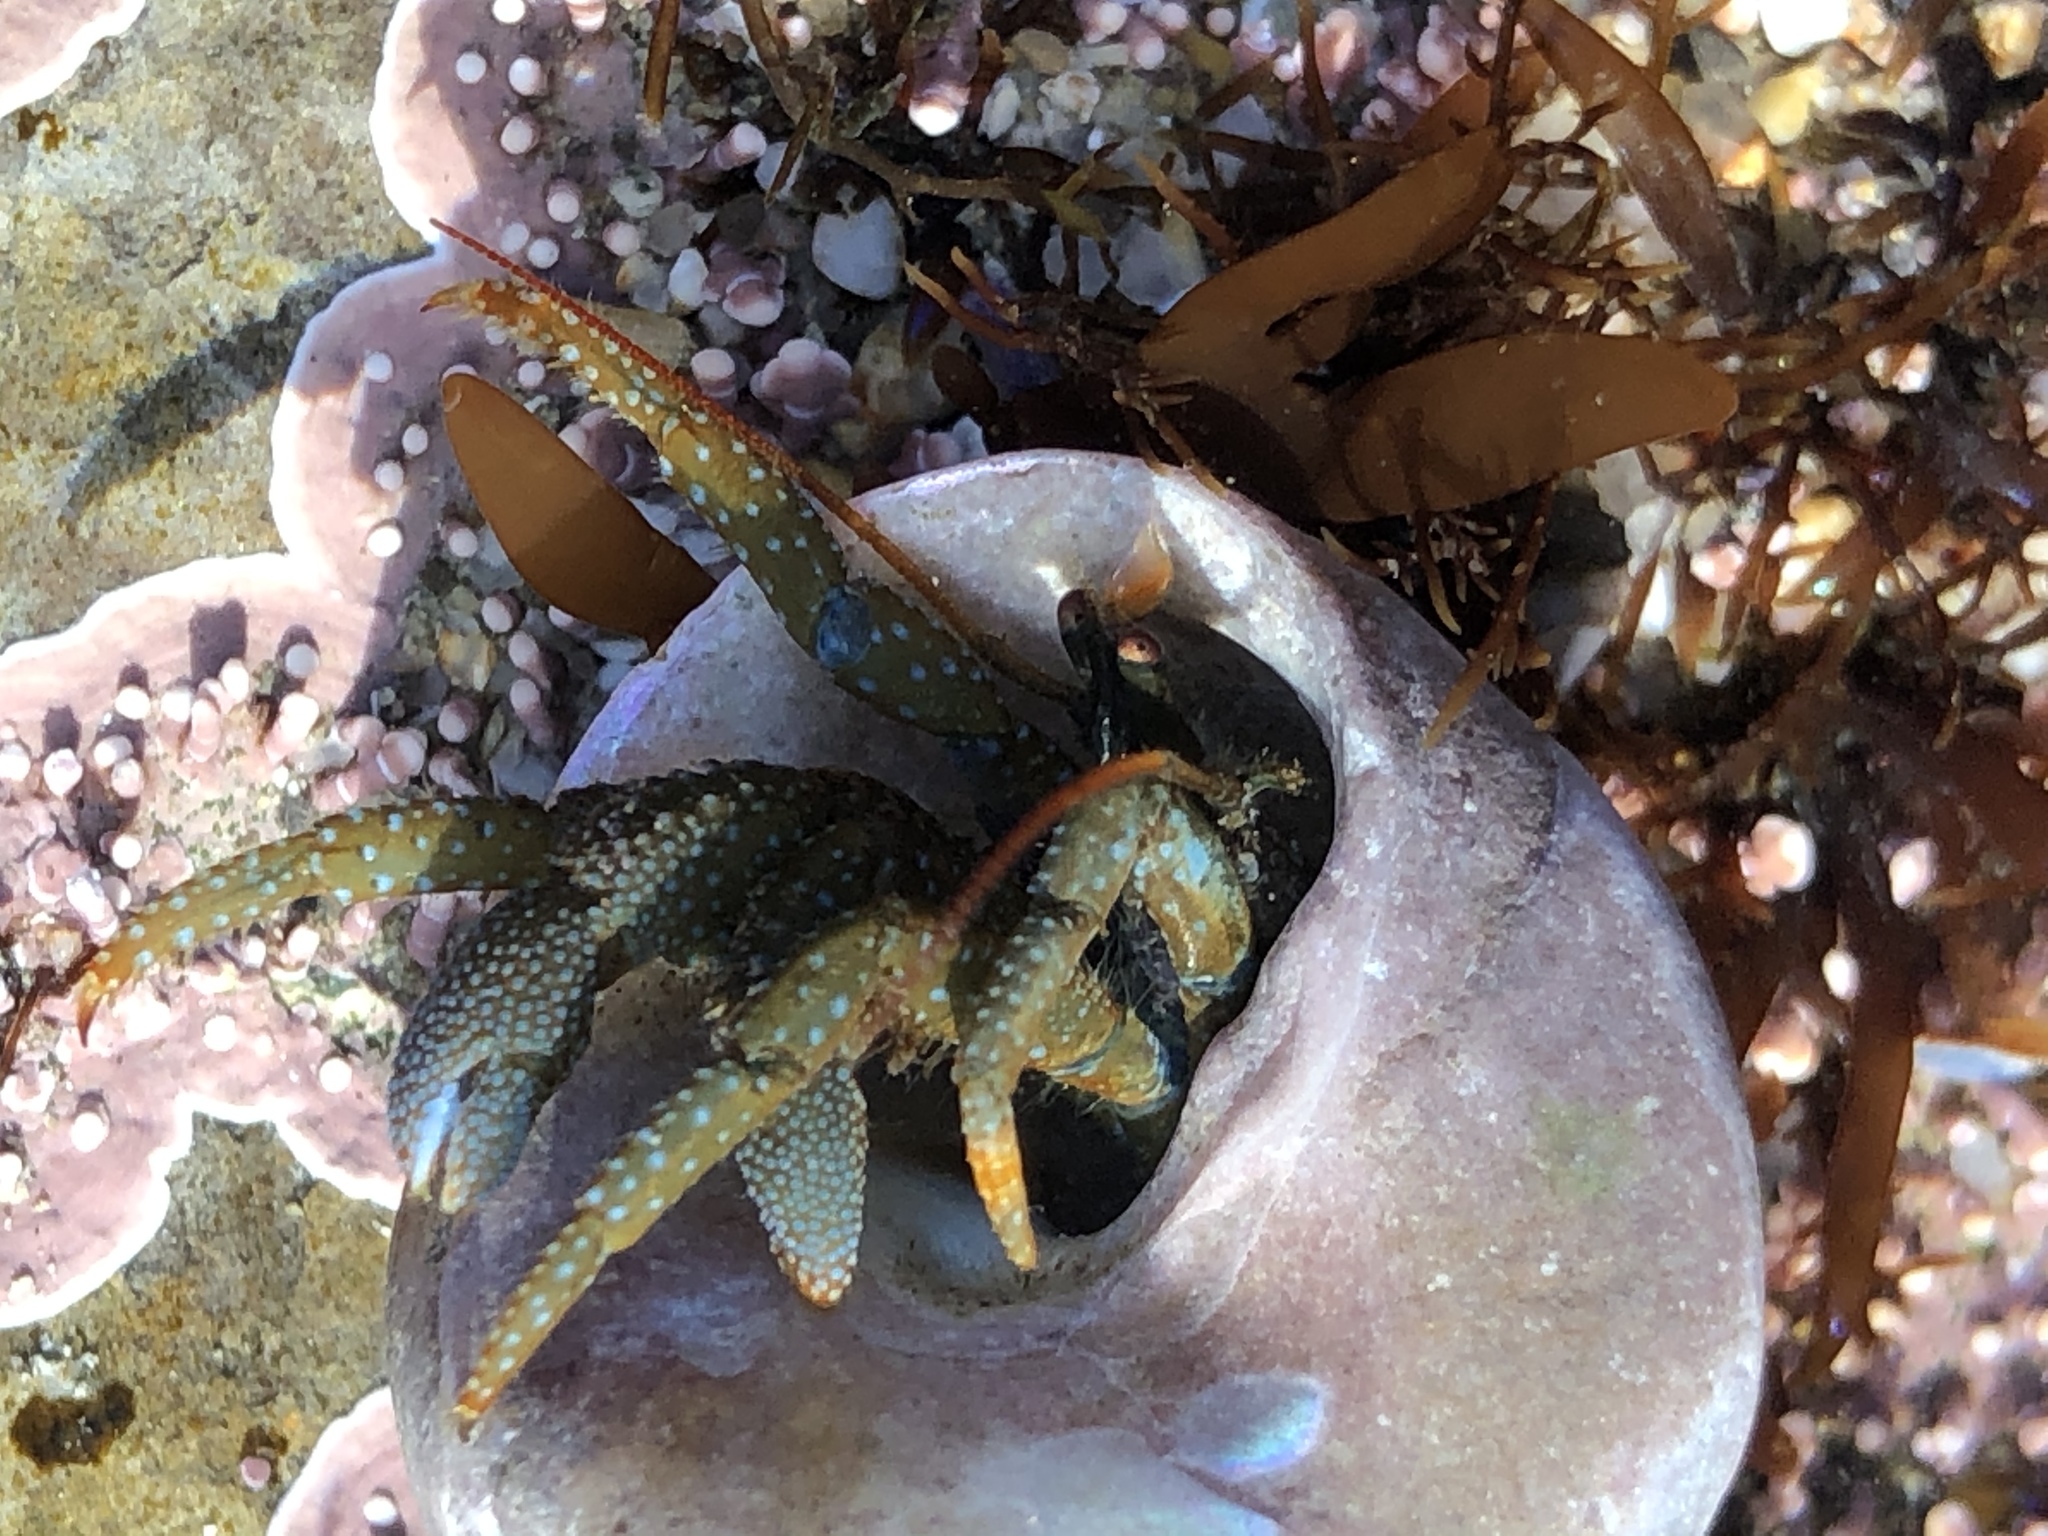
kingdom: Animalia
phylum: Arthropoda
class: Malacostraca
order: Decapoda
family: Paguridae
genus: Pagurus
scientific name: Pagurus granosimanus
